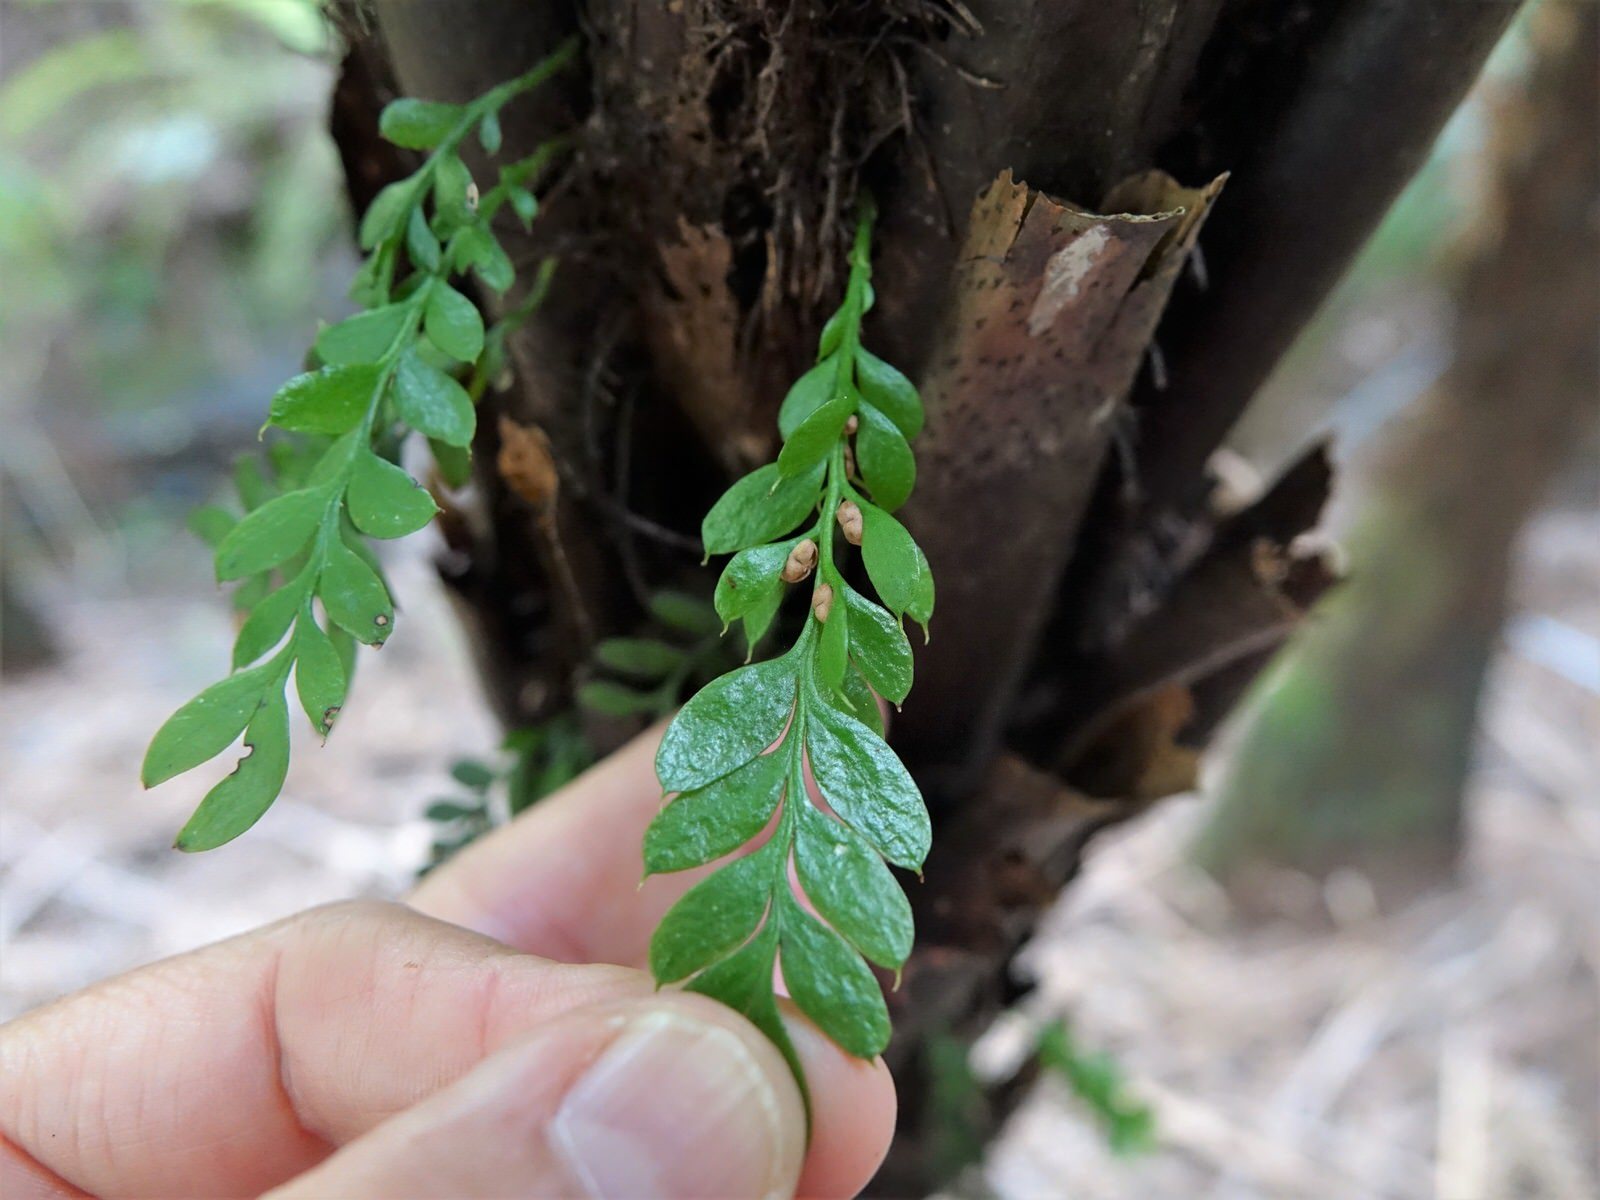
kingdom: Plantae
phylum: Tracheophyta
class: Polypodiopsida
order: Psilotales
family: Psilotaceae
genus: Tmesipteris
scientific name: Tmesipteris lanceolata
